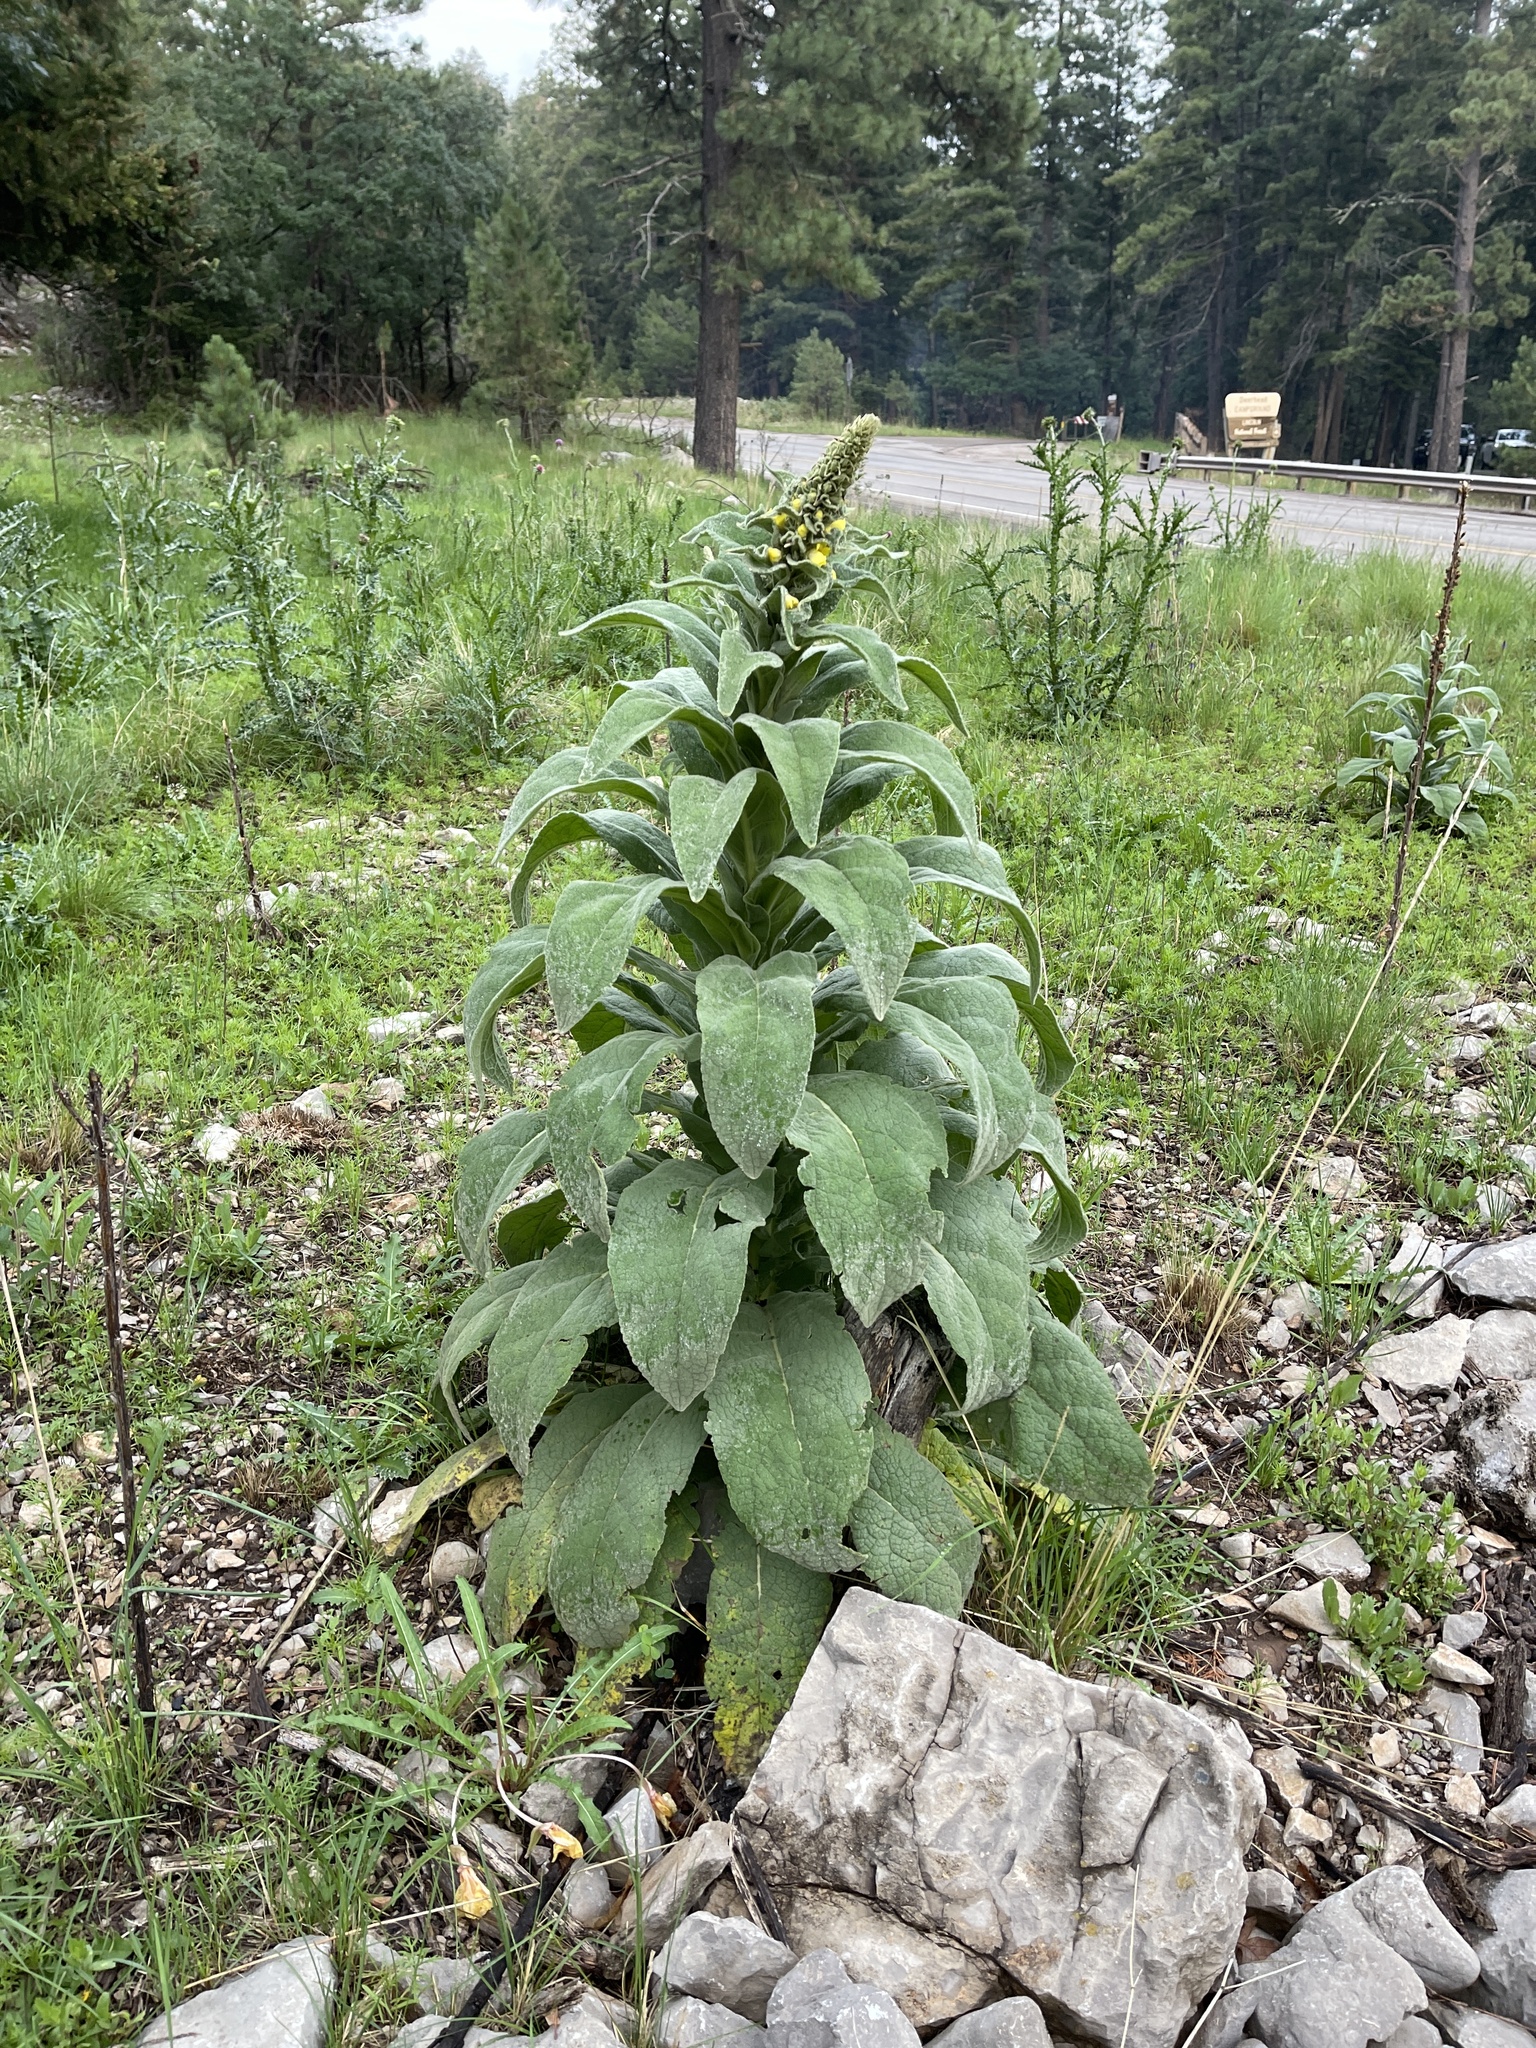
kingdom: Plantae
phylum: Tracheophyta
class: Magnoliopsida
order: Lamiales
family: Scrophulariaceae
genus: Verbascum
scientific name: Verbascum thapsus
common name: Common mullein
